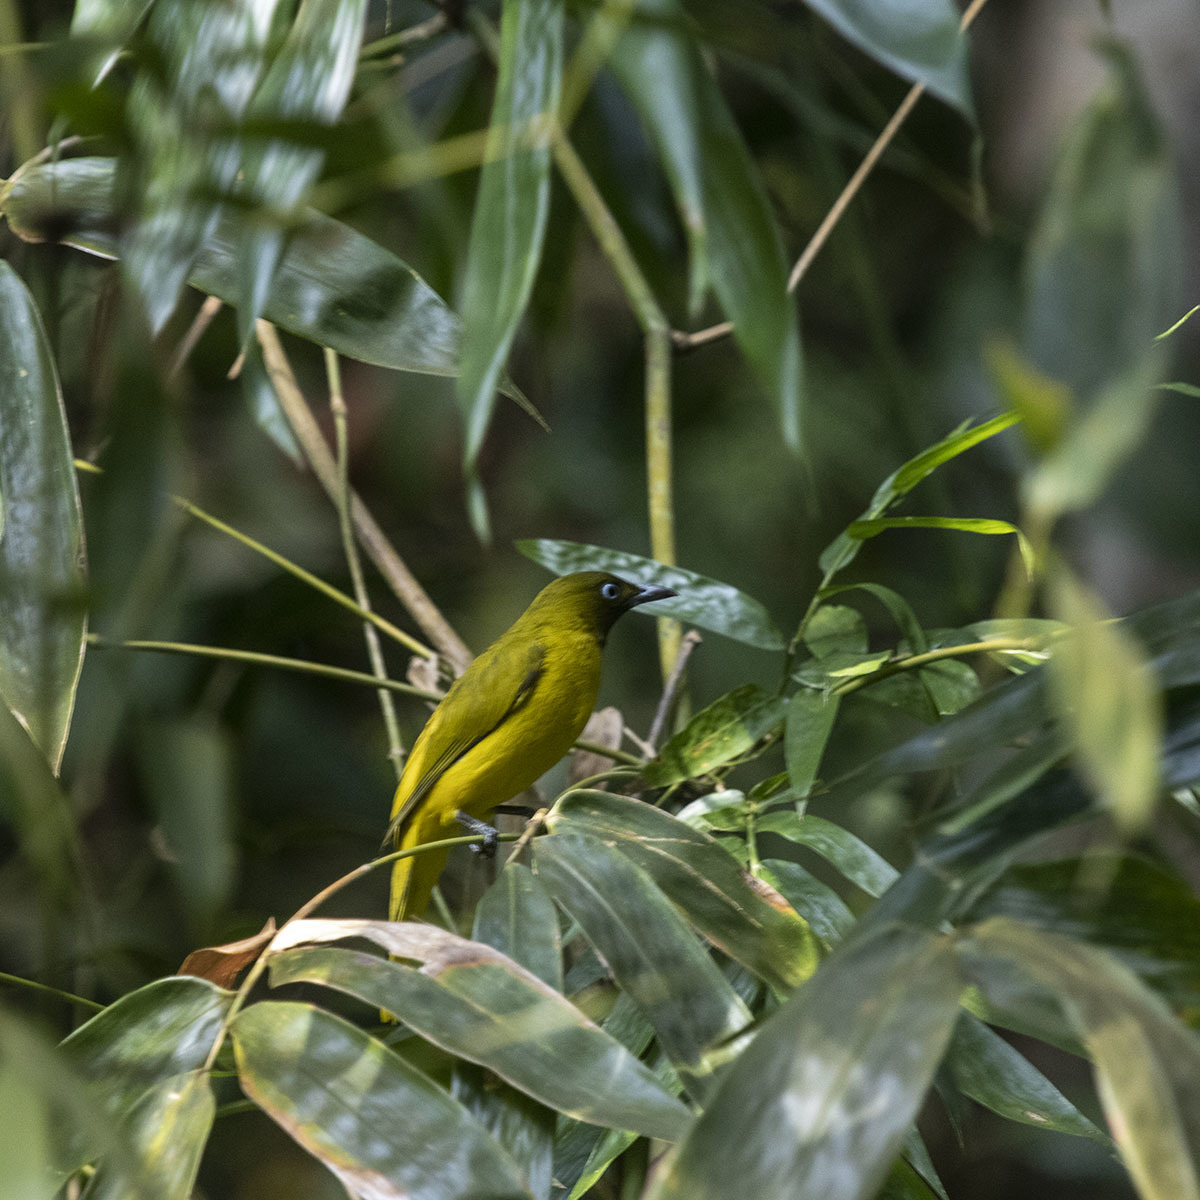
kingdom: Animalia
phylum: Chordata
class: Aves
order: Passeriformes
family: Pycnonotidae
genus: Microtarsus
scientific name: Microtarsus
